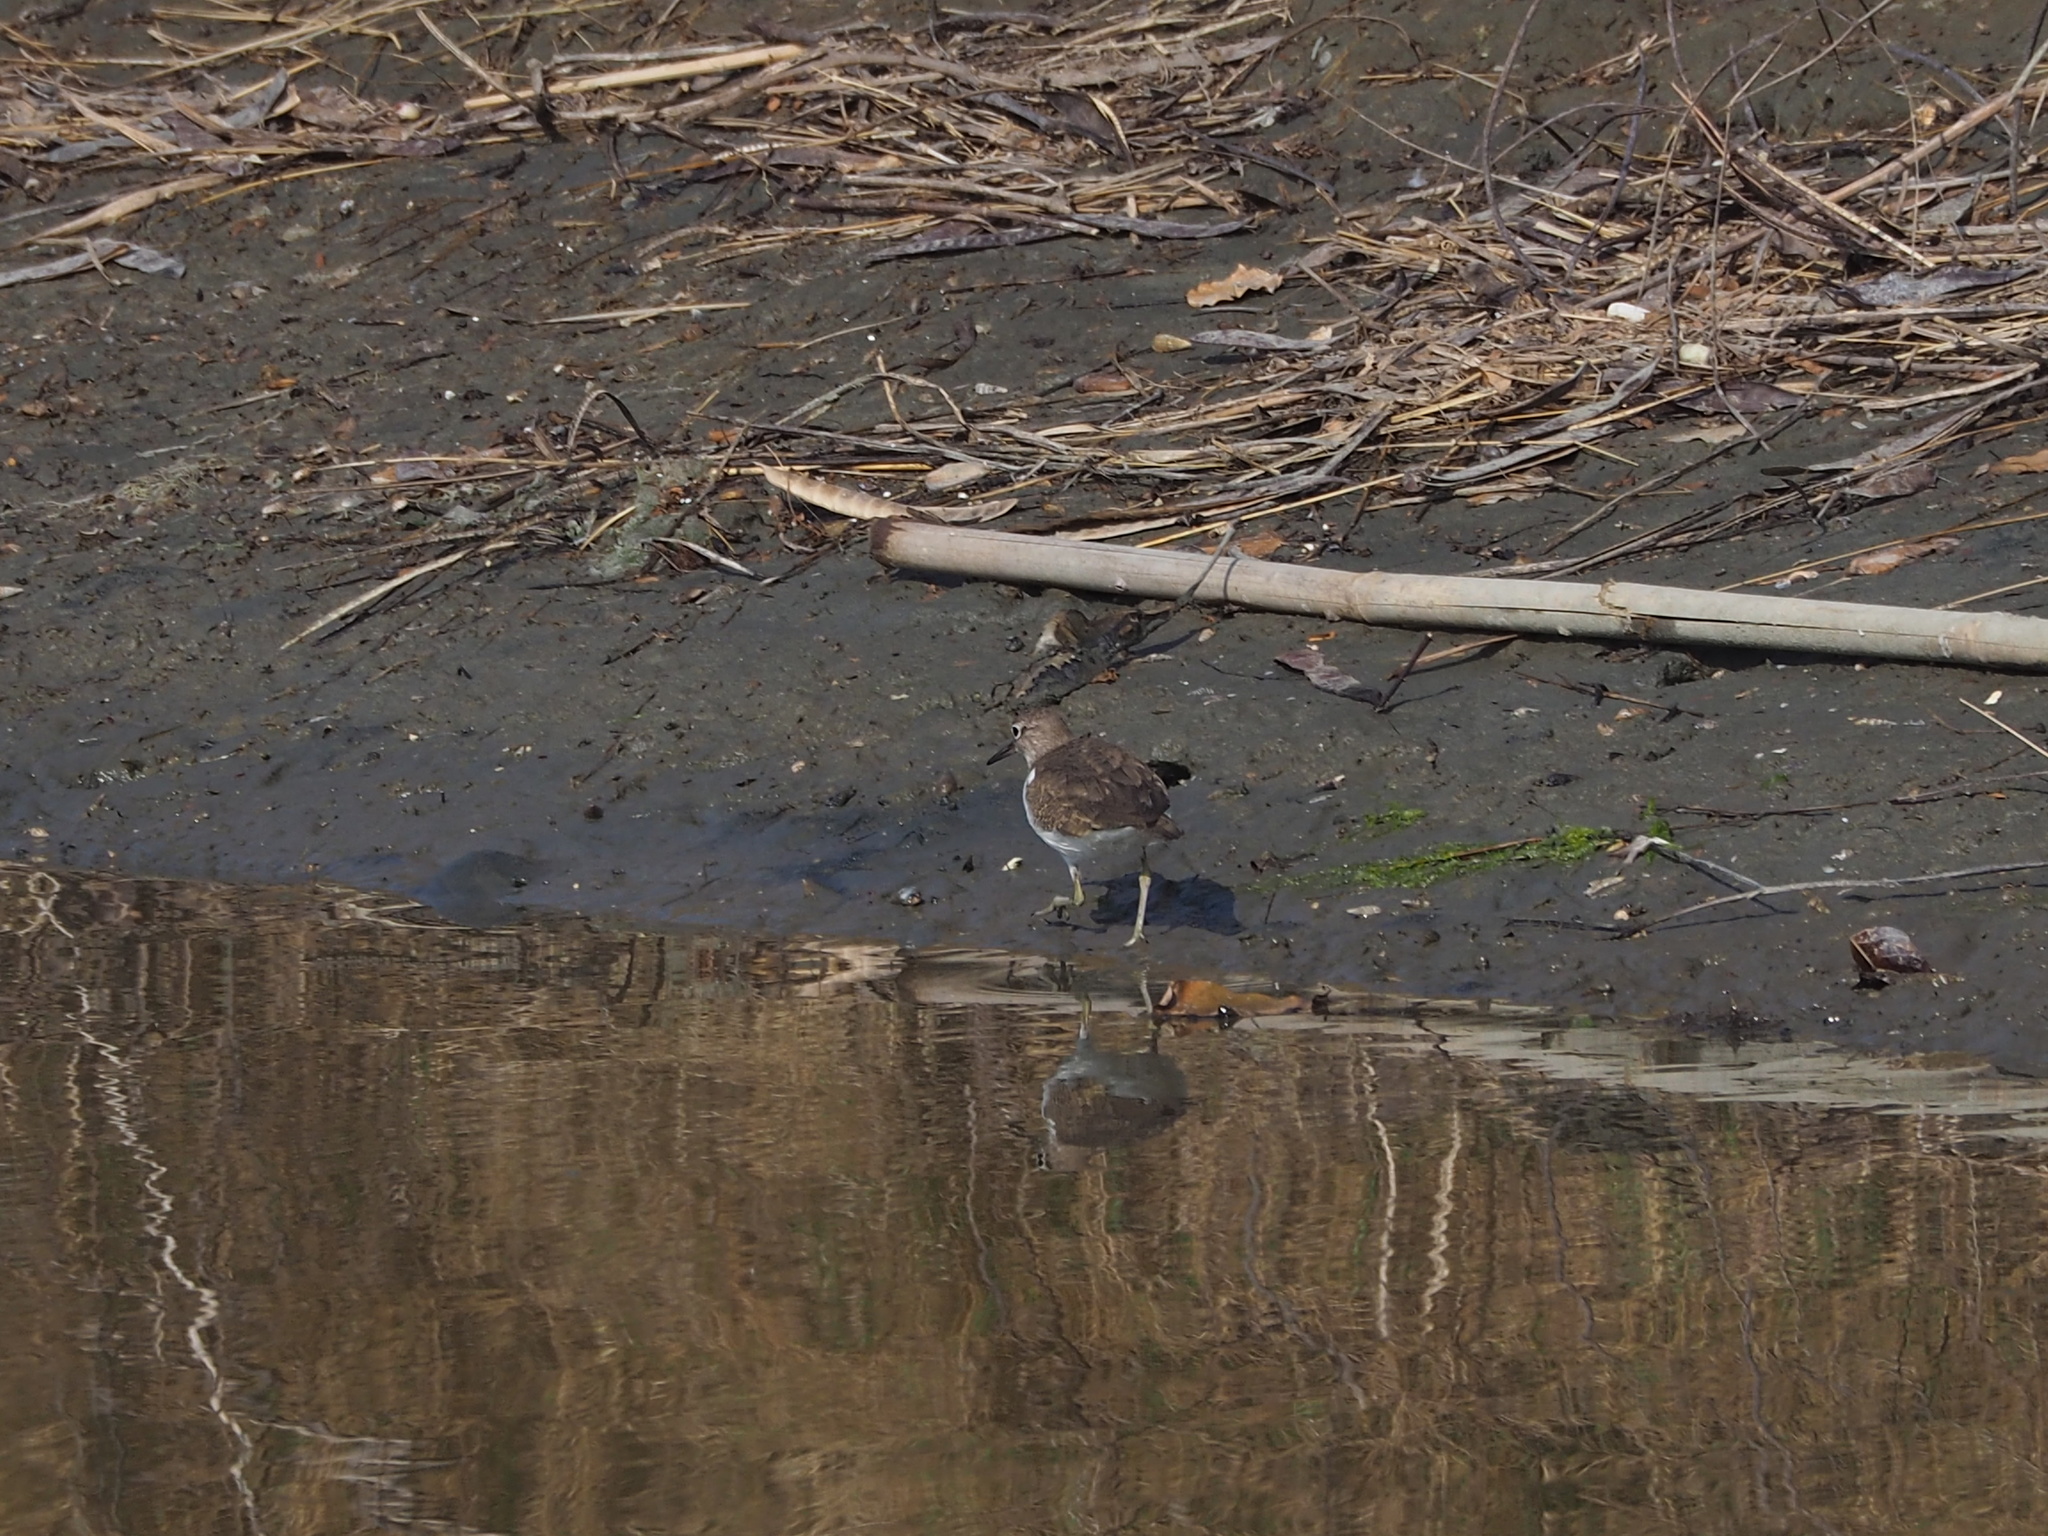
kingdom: Animalia
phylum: Chordata
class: Aves
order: Charadriiformes
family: Scolopacidae
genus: Actitis
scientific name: Actitis hypoleucos
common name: Common sandpiper
